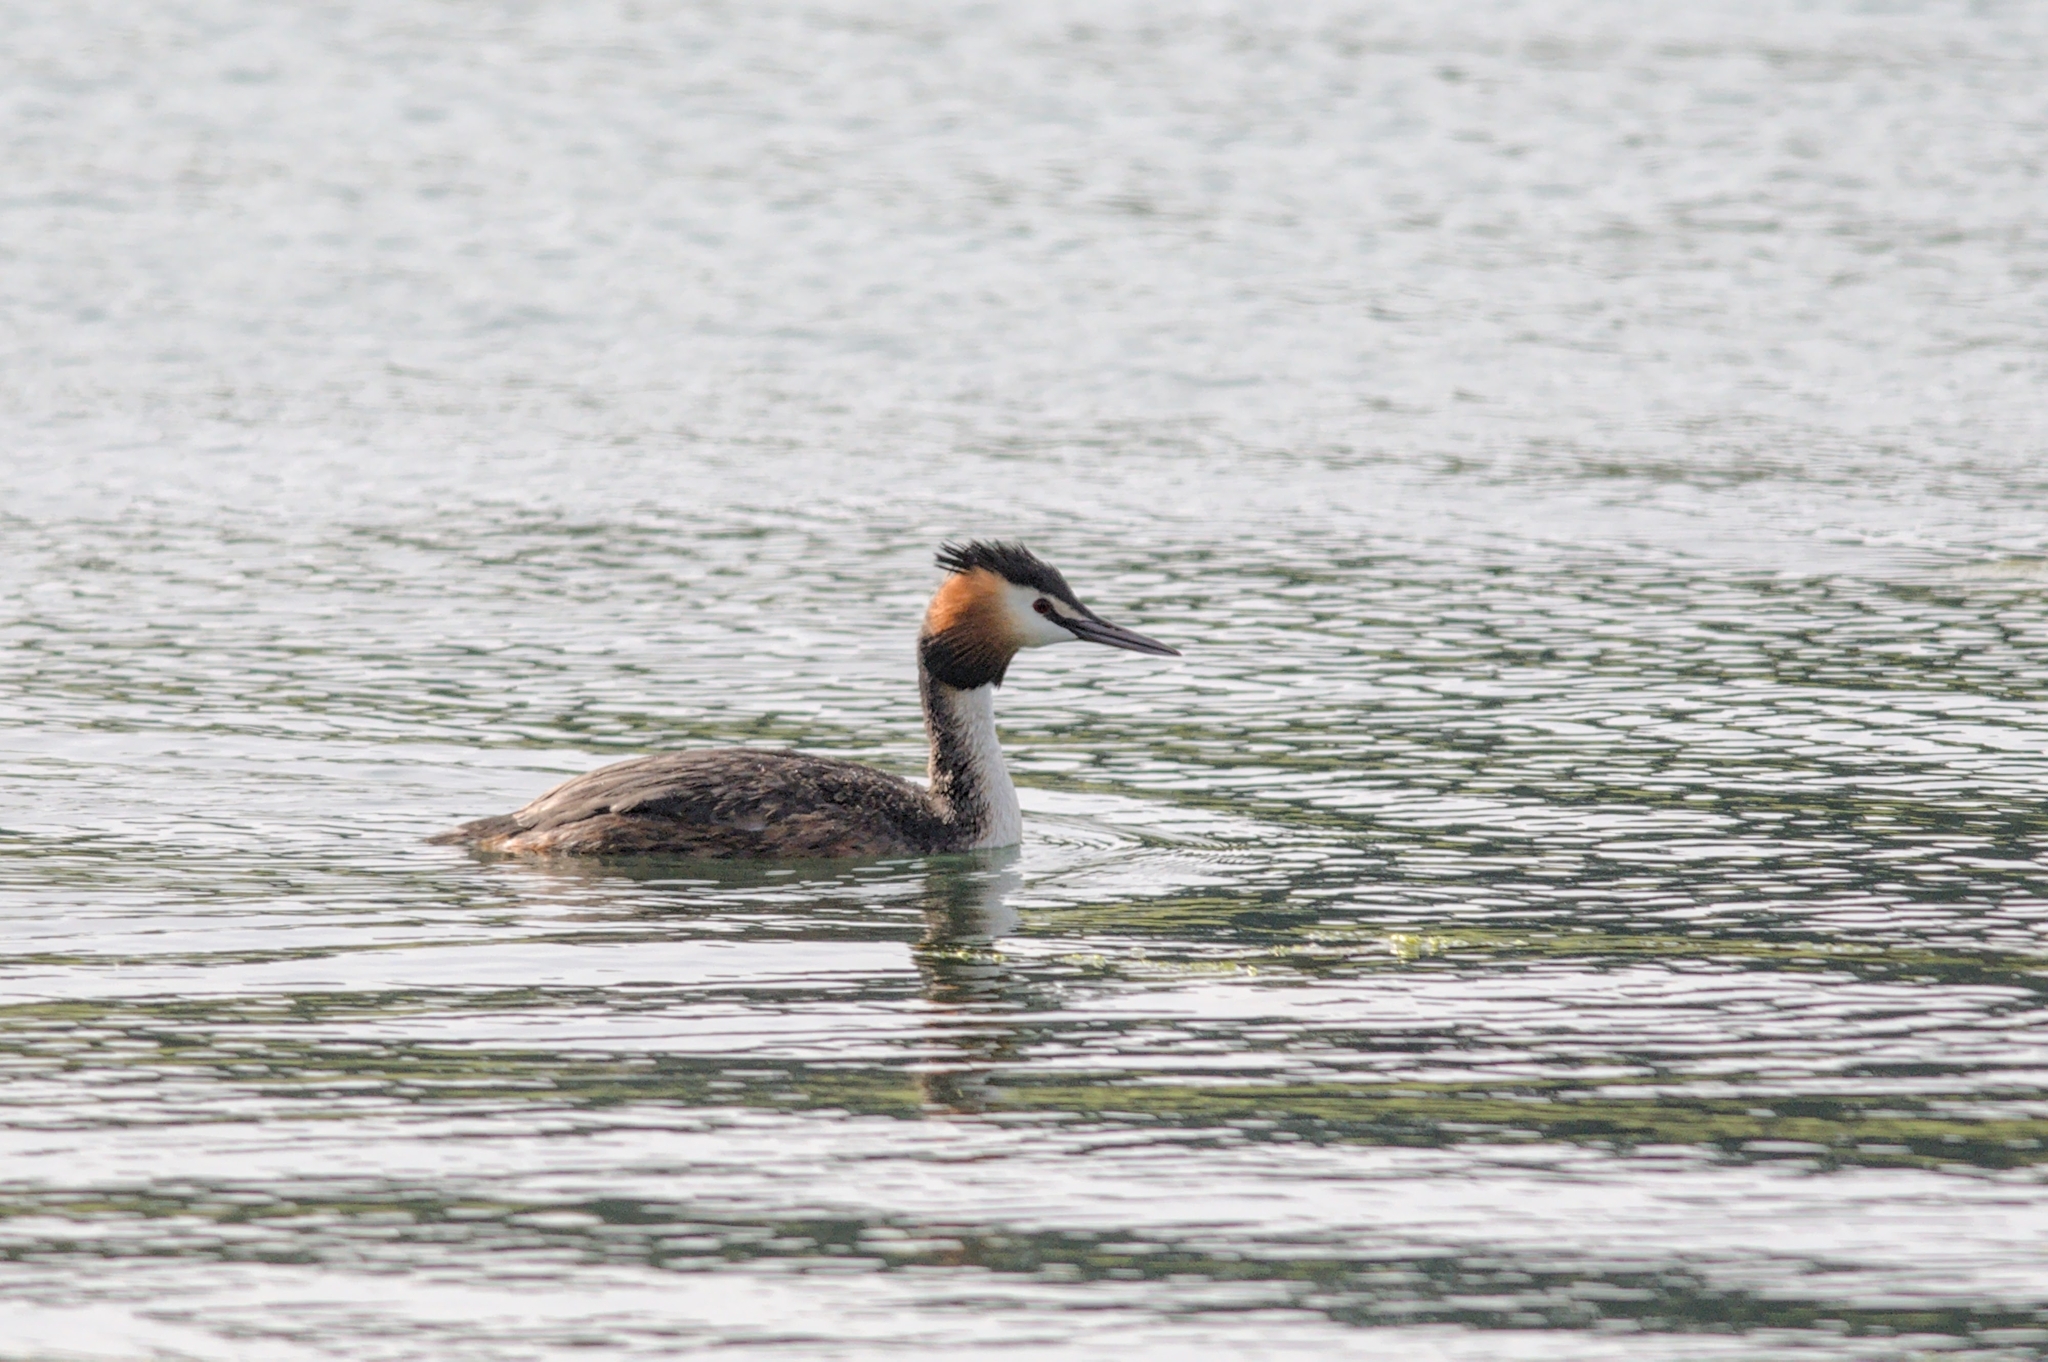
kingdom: Animalia
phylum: Chordata
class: Aves
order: Podicipediformes
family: Podicipedidae
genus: Podiceps
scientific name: Podiceps cristatus
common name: Great crested grebe
